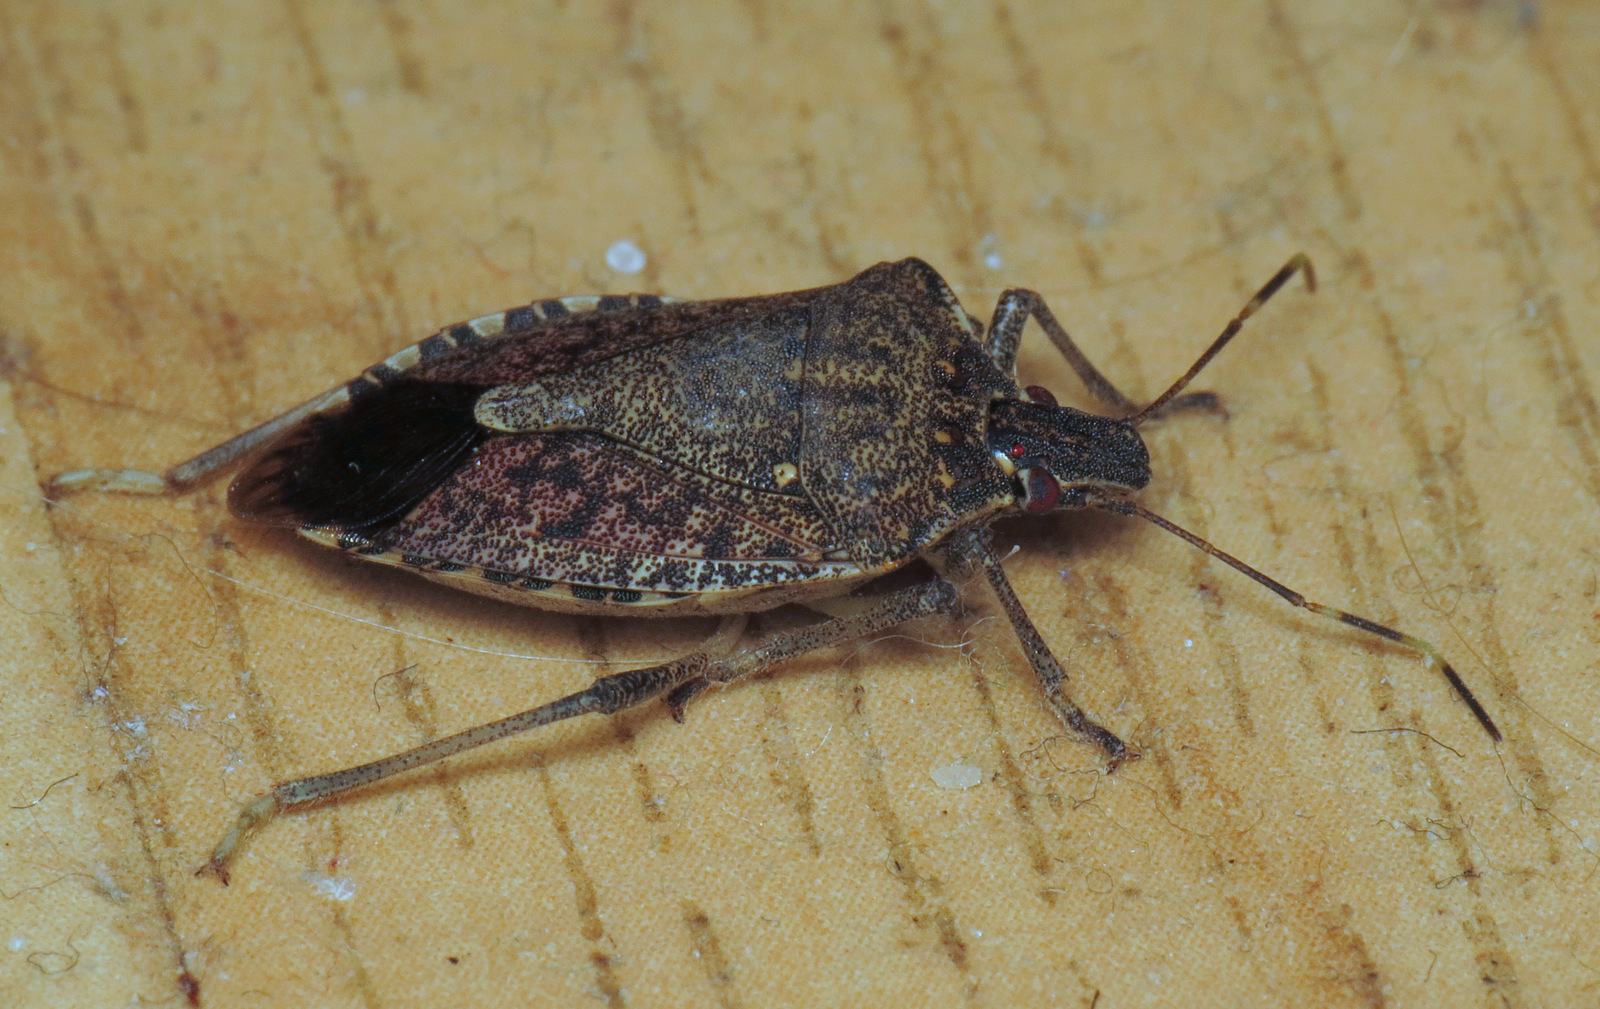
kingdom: Animalia
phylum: Arthropoda
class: Insecta
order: Hemiptera
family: Pentatomidae
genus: Halyomorpha
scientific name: Halyomorpha halys
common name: Brown marmorated stink bug
